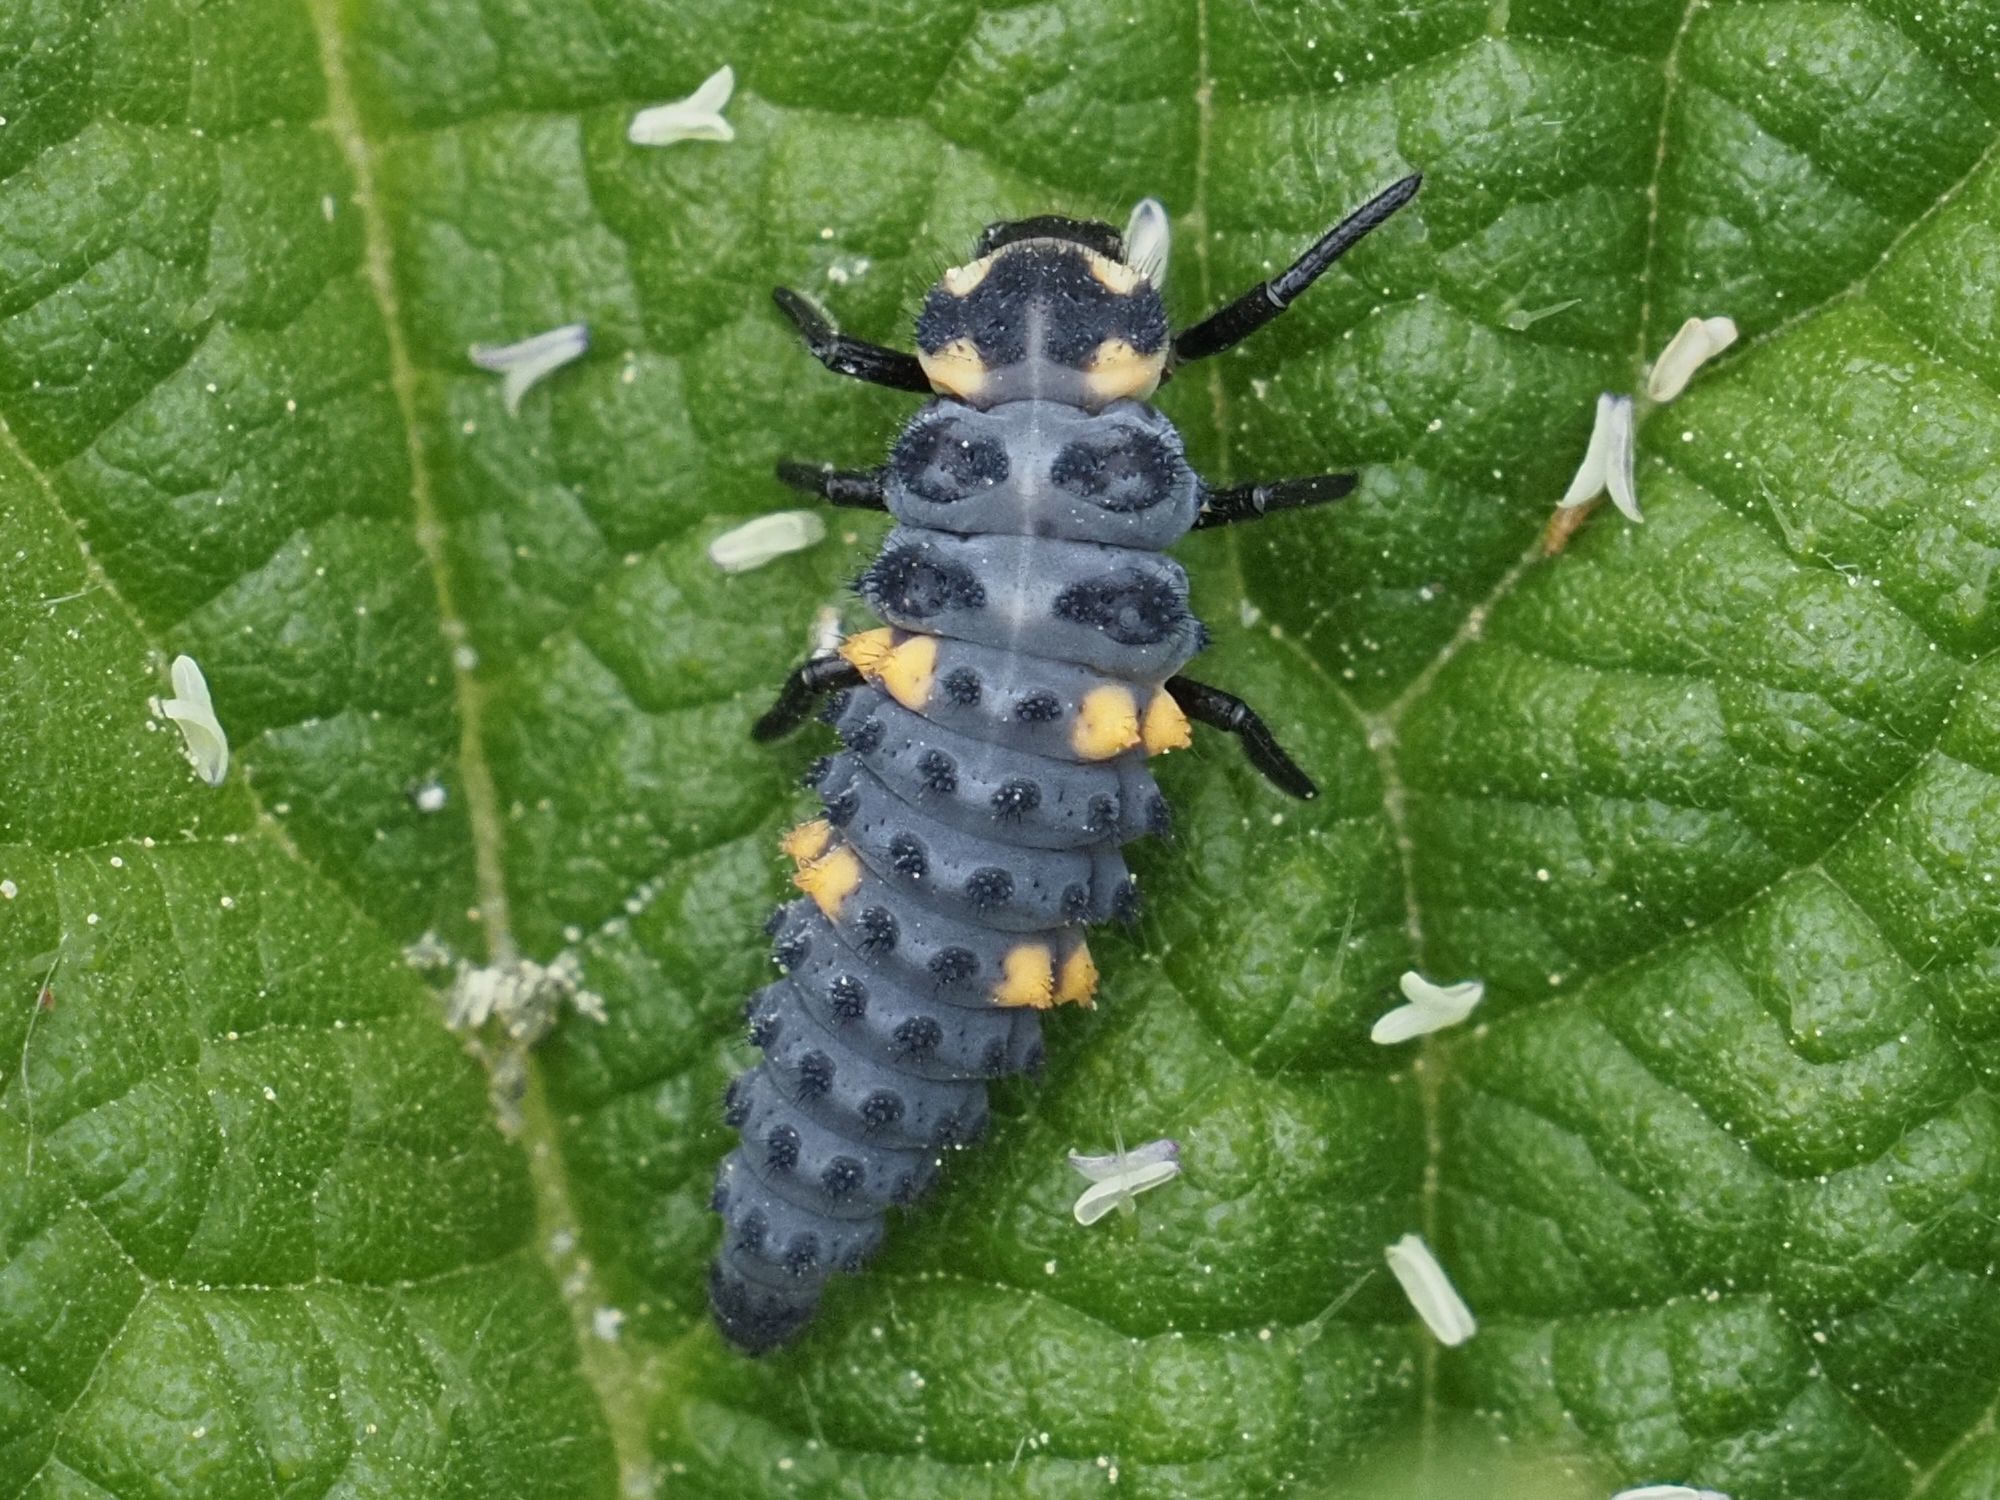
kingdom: Animalia
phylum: Arthropoda
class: Insecta
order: Coleoptera
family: Coccinellidae
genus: Coccinella
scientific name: Coccinella septempunctata
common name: Sevenspotted lady beetle
